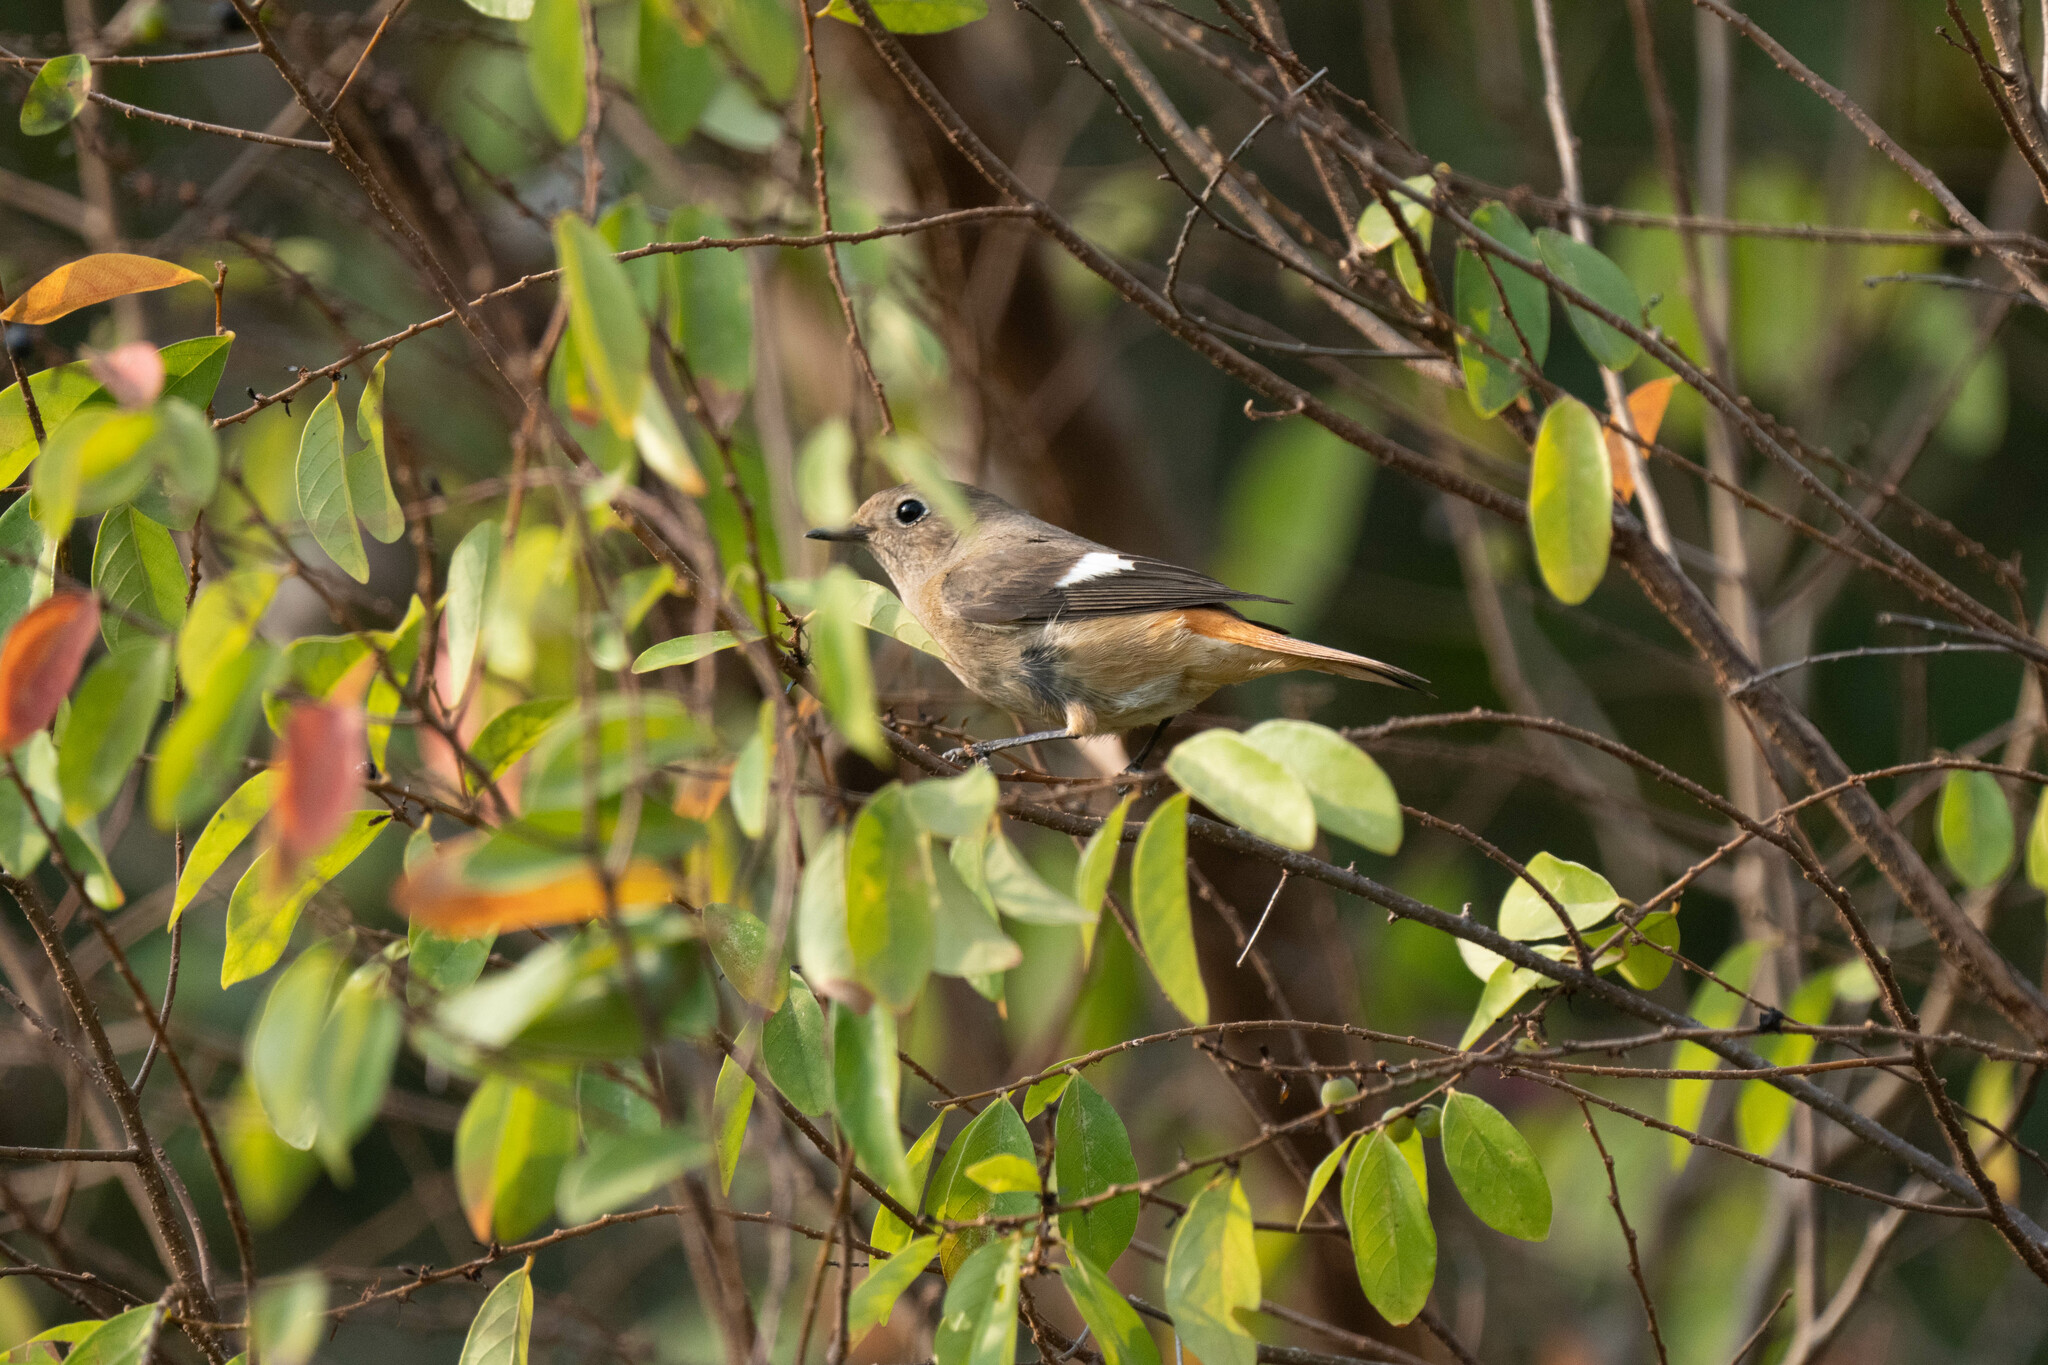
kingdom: Animalia
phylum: Chordata
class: Aves
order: Passeriformes
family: Muscicapidae
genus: Phoenicurus
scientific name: Phoenicurus auroreus
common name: Daurian redstart
